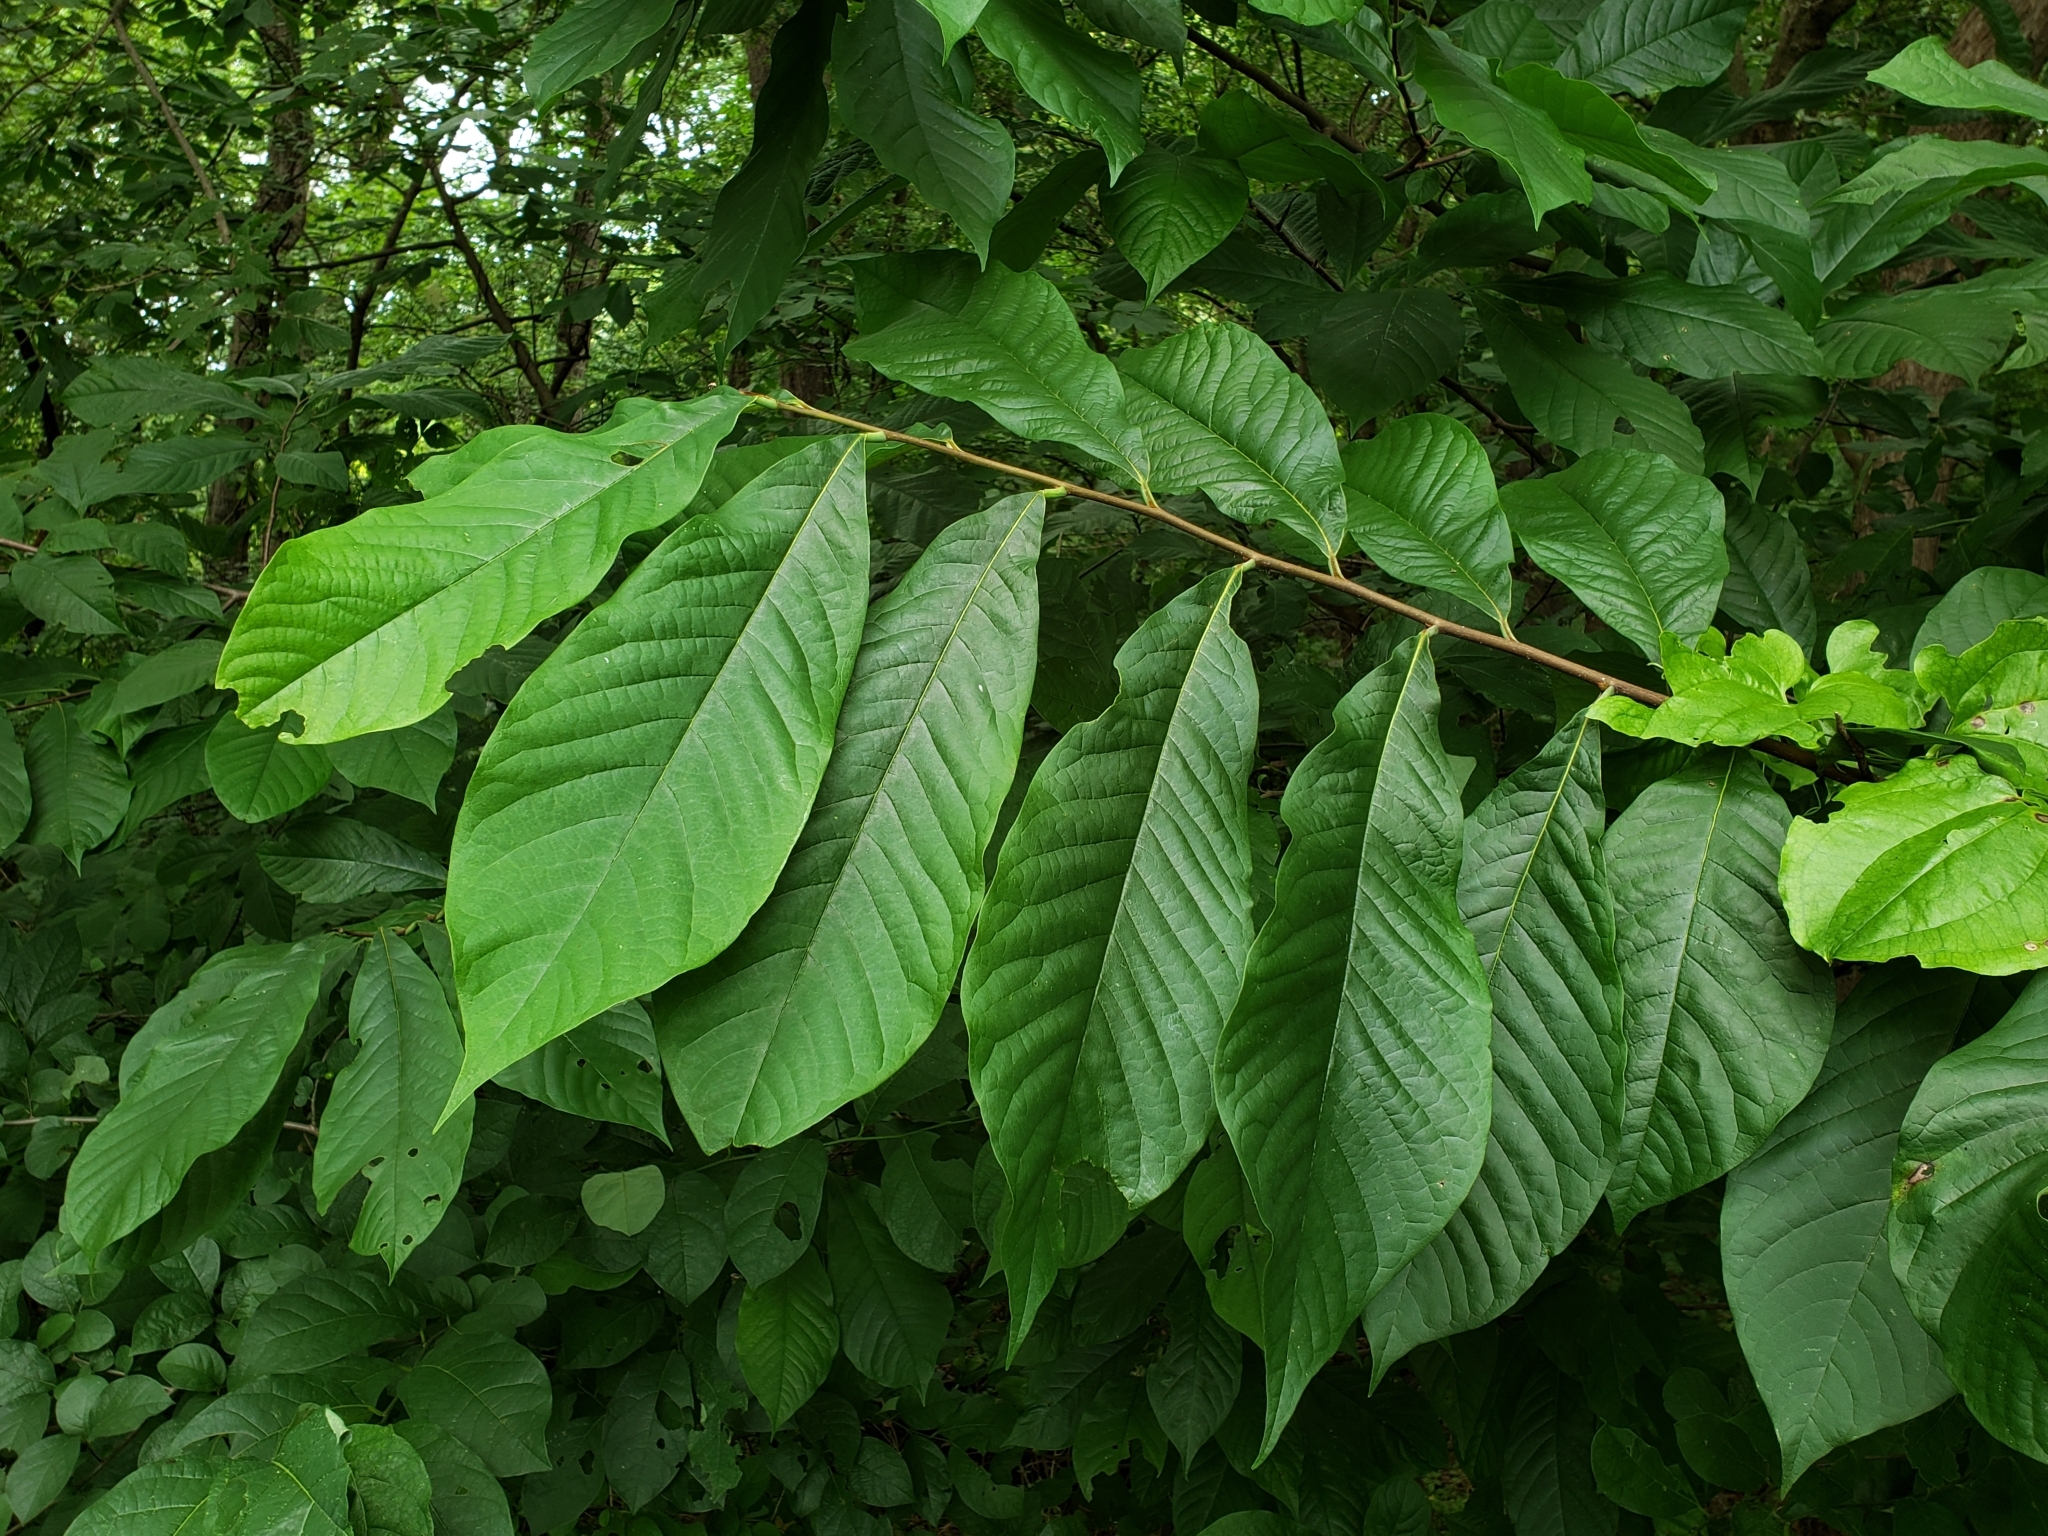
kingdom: Plantae
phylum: Tracheophyta
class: Magnoliopsida
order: Magnoliales
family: Annonaceae
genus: Asimina
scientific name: Asimina triloba
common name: Dog-banana
